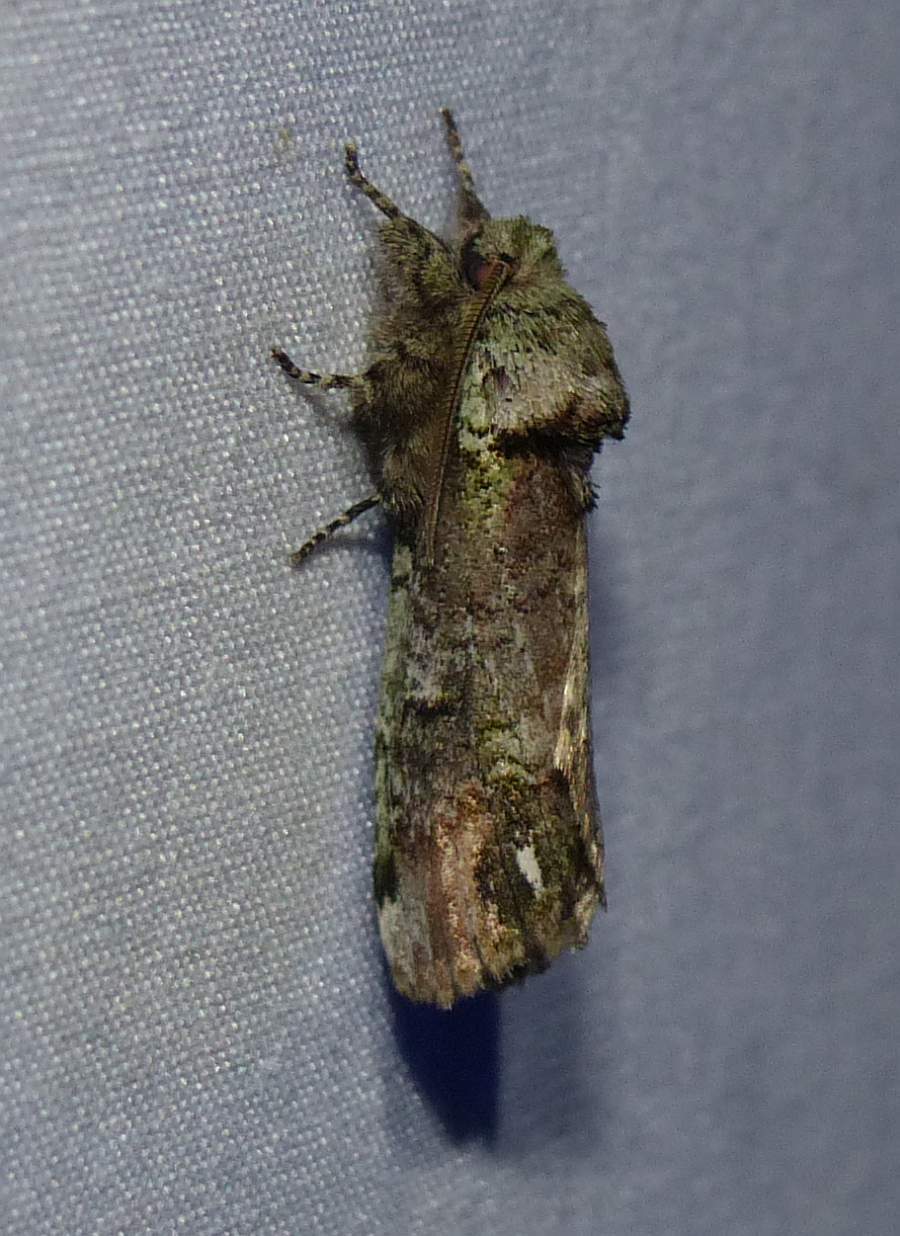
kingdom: Animalia
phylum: Arthropoda
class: Insecta
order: Lepidoptera
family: Notodontidae
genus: Schizura
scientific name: Schizura
